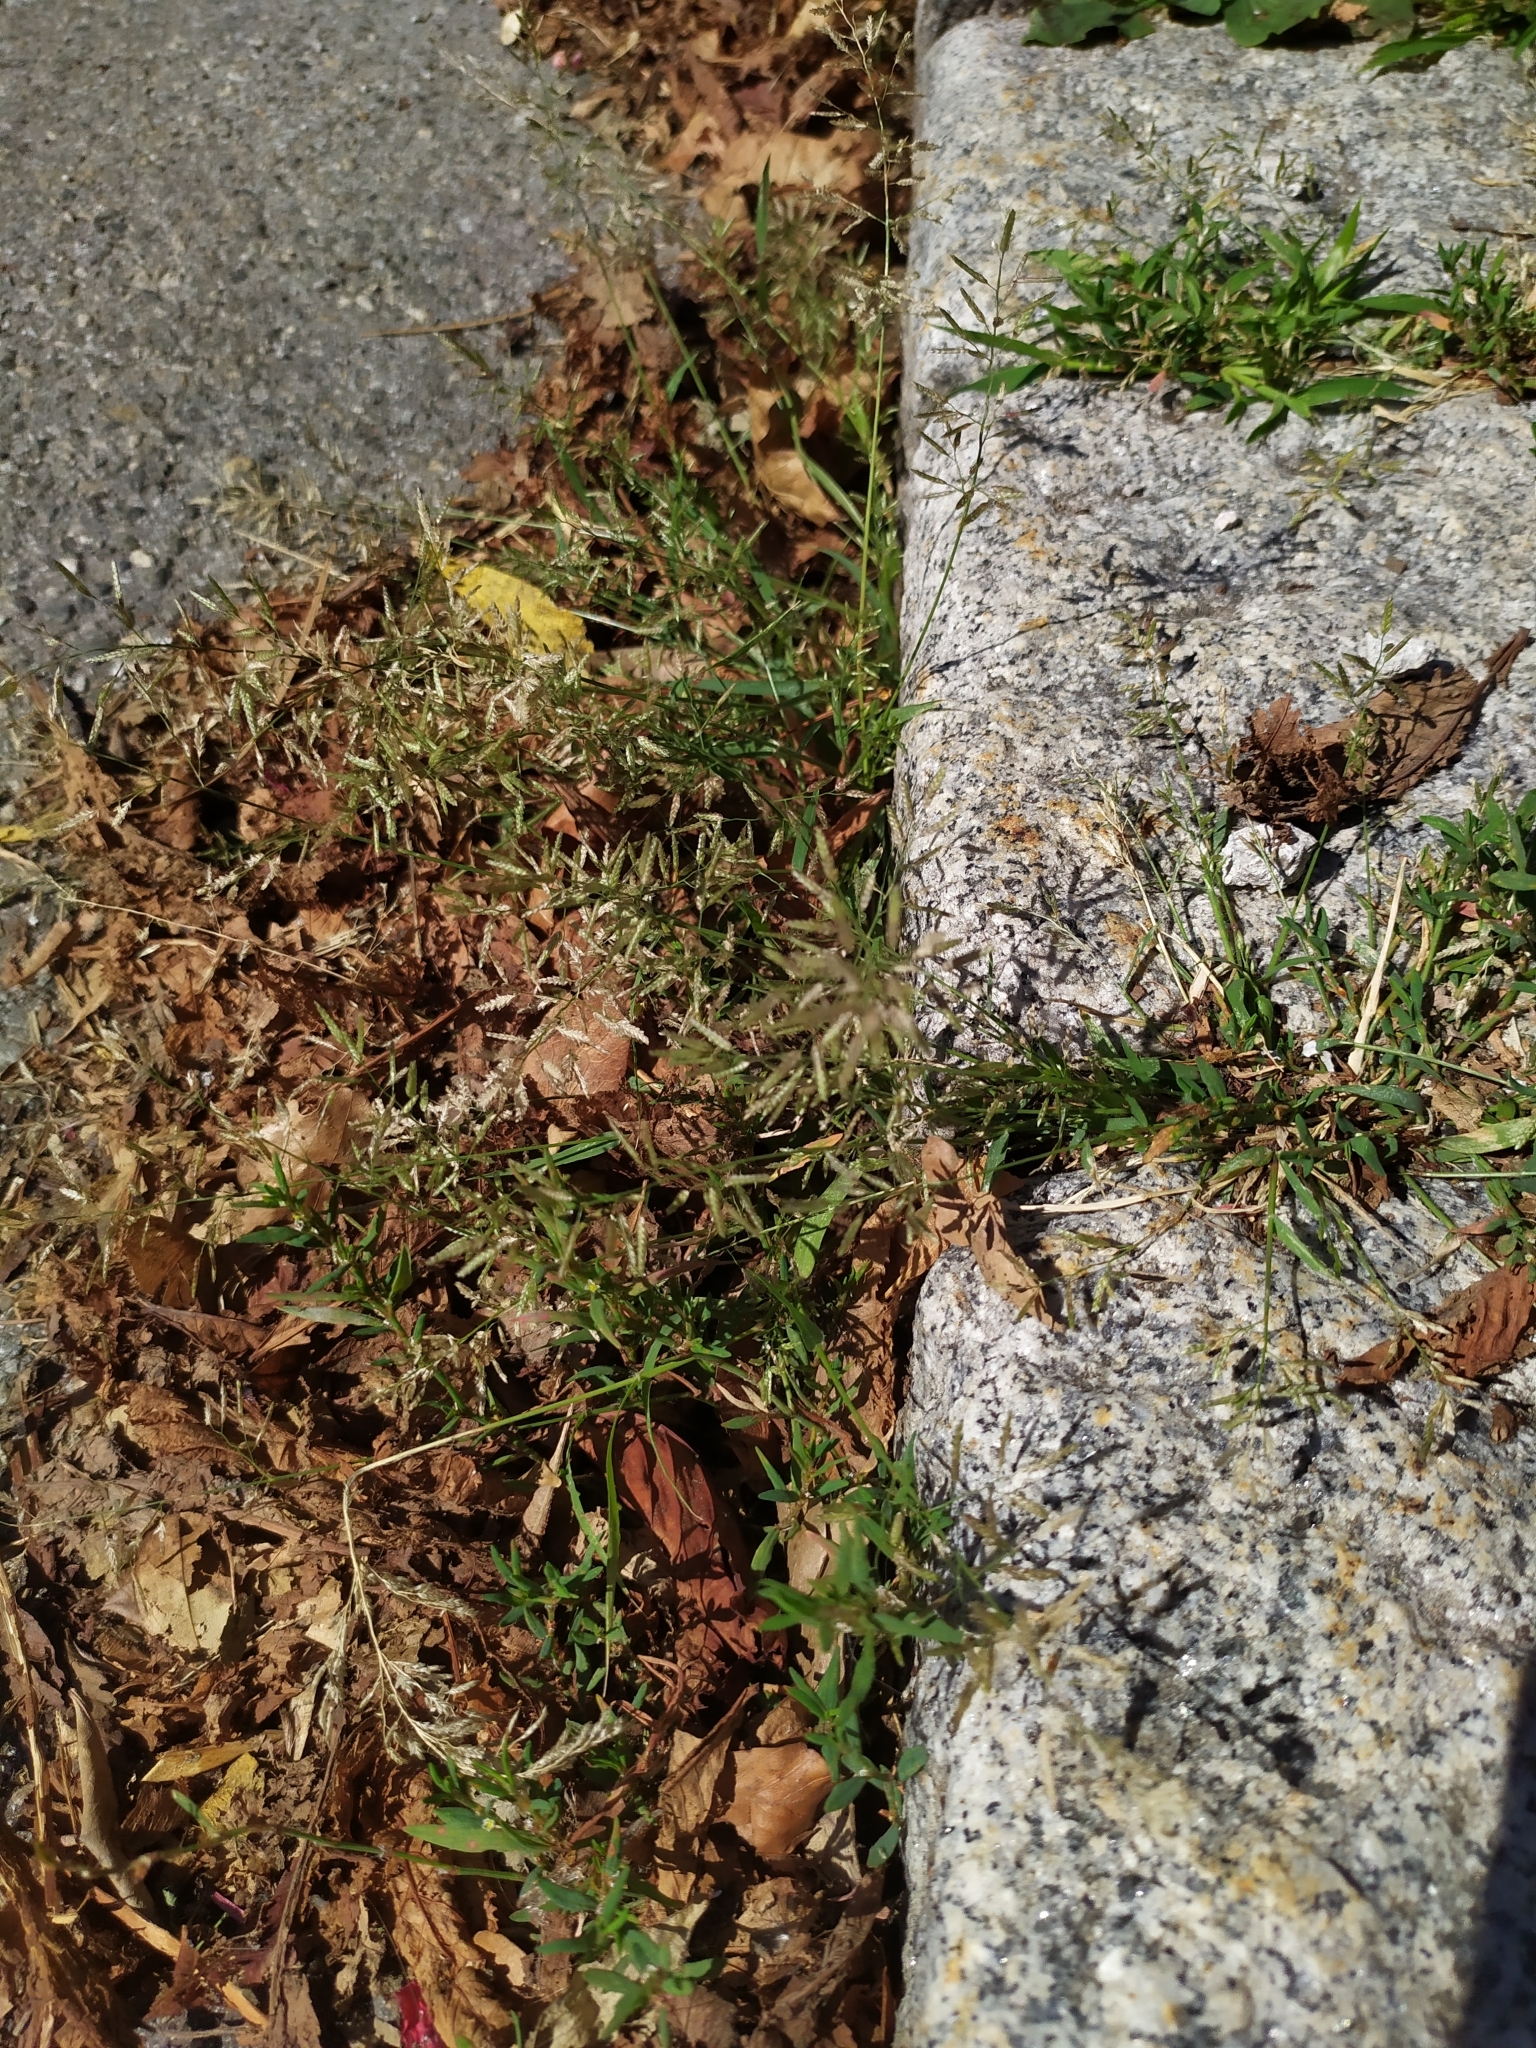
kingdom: Plantae
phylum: Tracheophyta
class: Liliopsida
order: Poales
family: Poaceae
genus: Eragrostis
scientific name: Eragrostis minor
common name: Small love-grass
